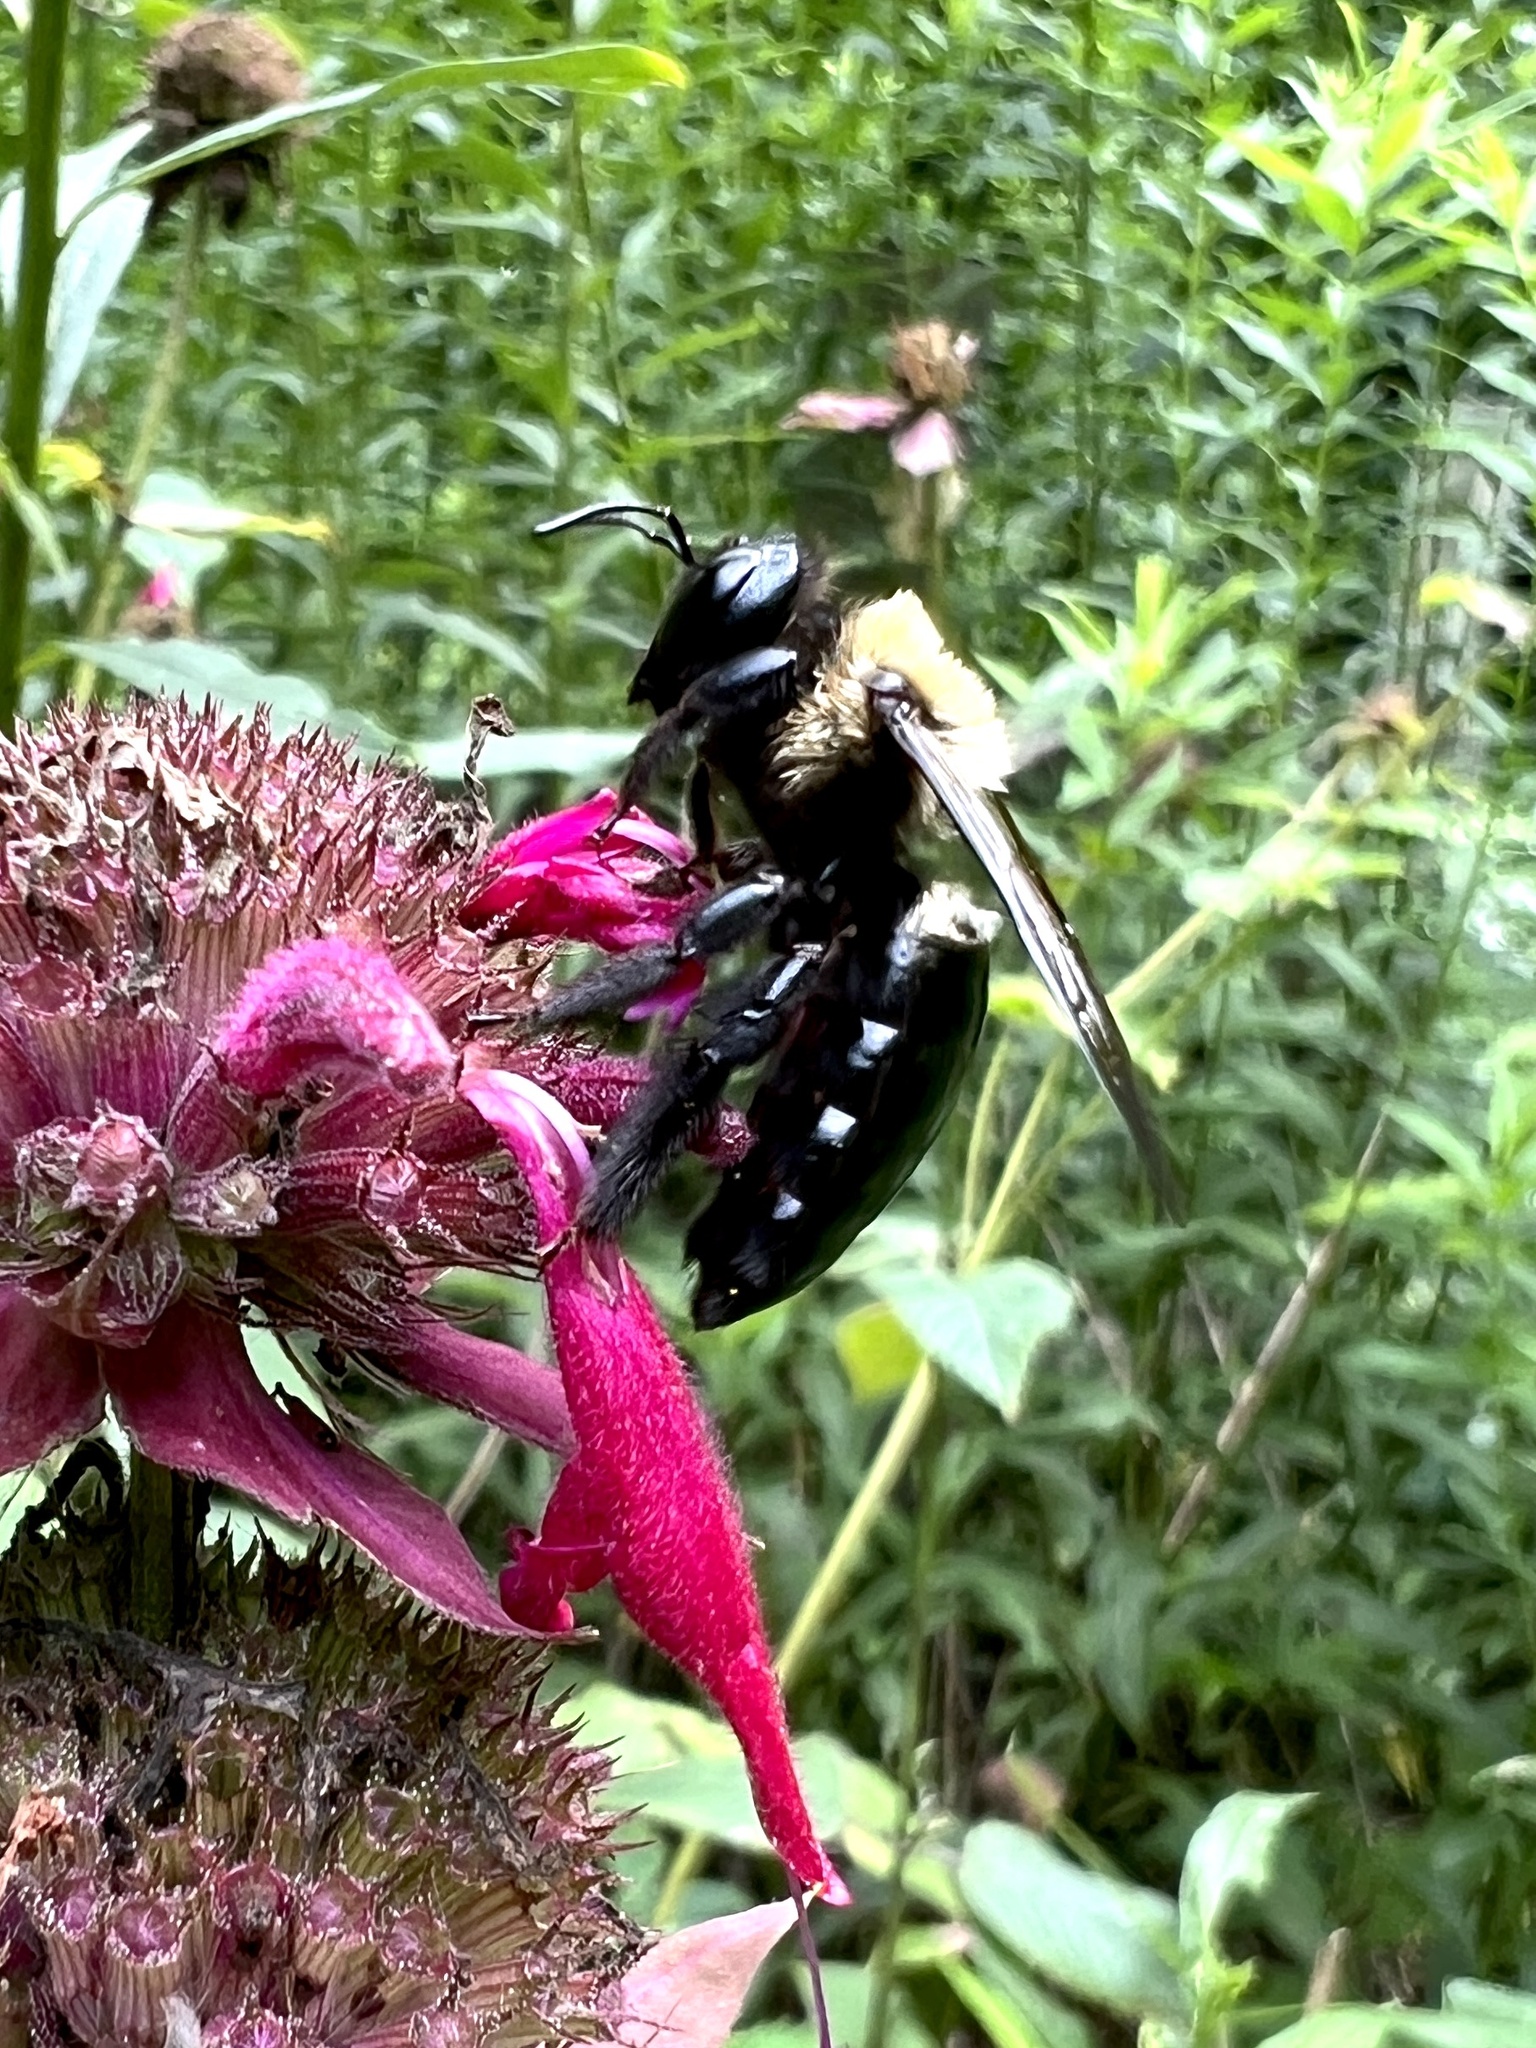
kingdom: Animalia
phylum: Arthropoda
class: Insecta
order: Hymenoptera
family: Apidae
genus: Xylocopa
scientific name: Xylocopa virginica
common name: Carpenter bee
